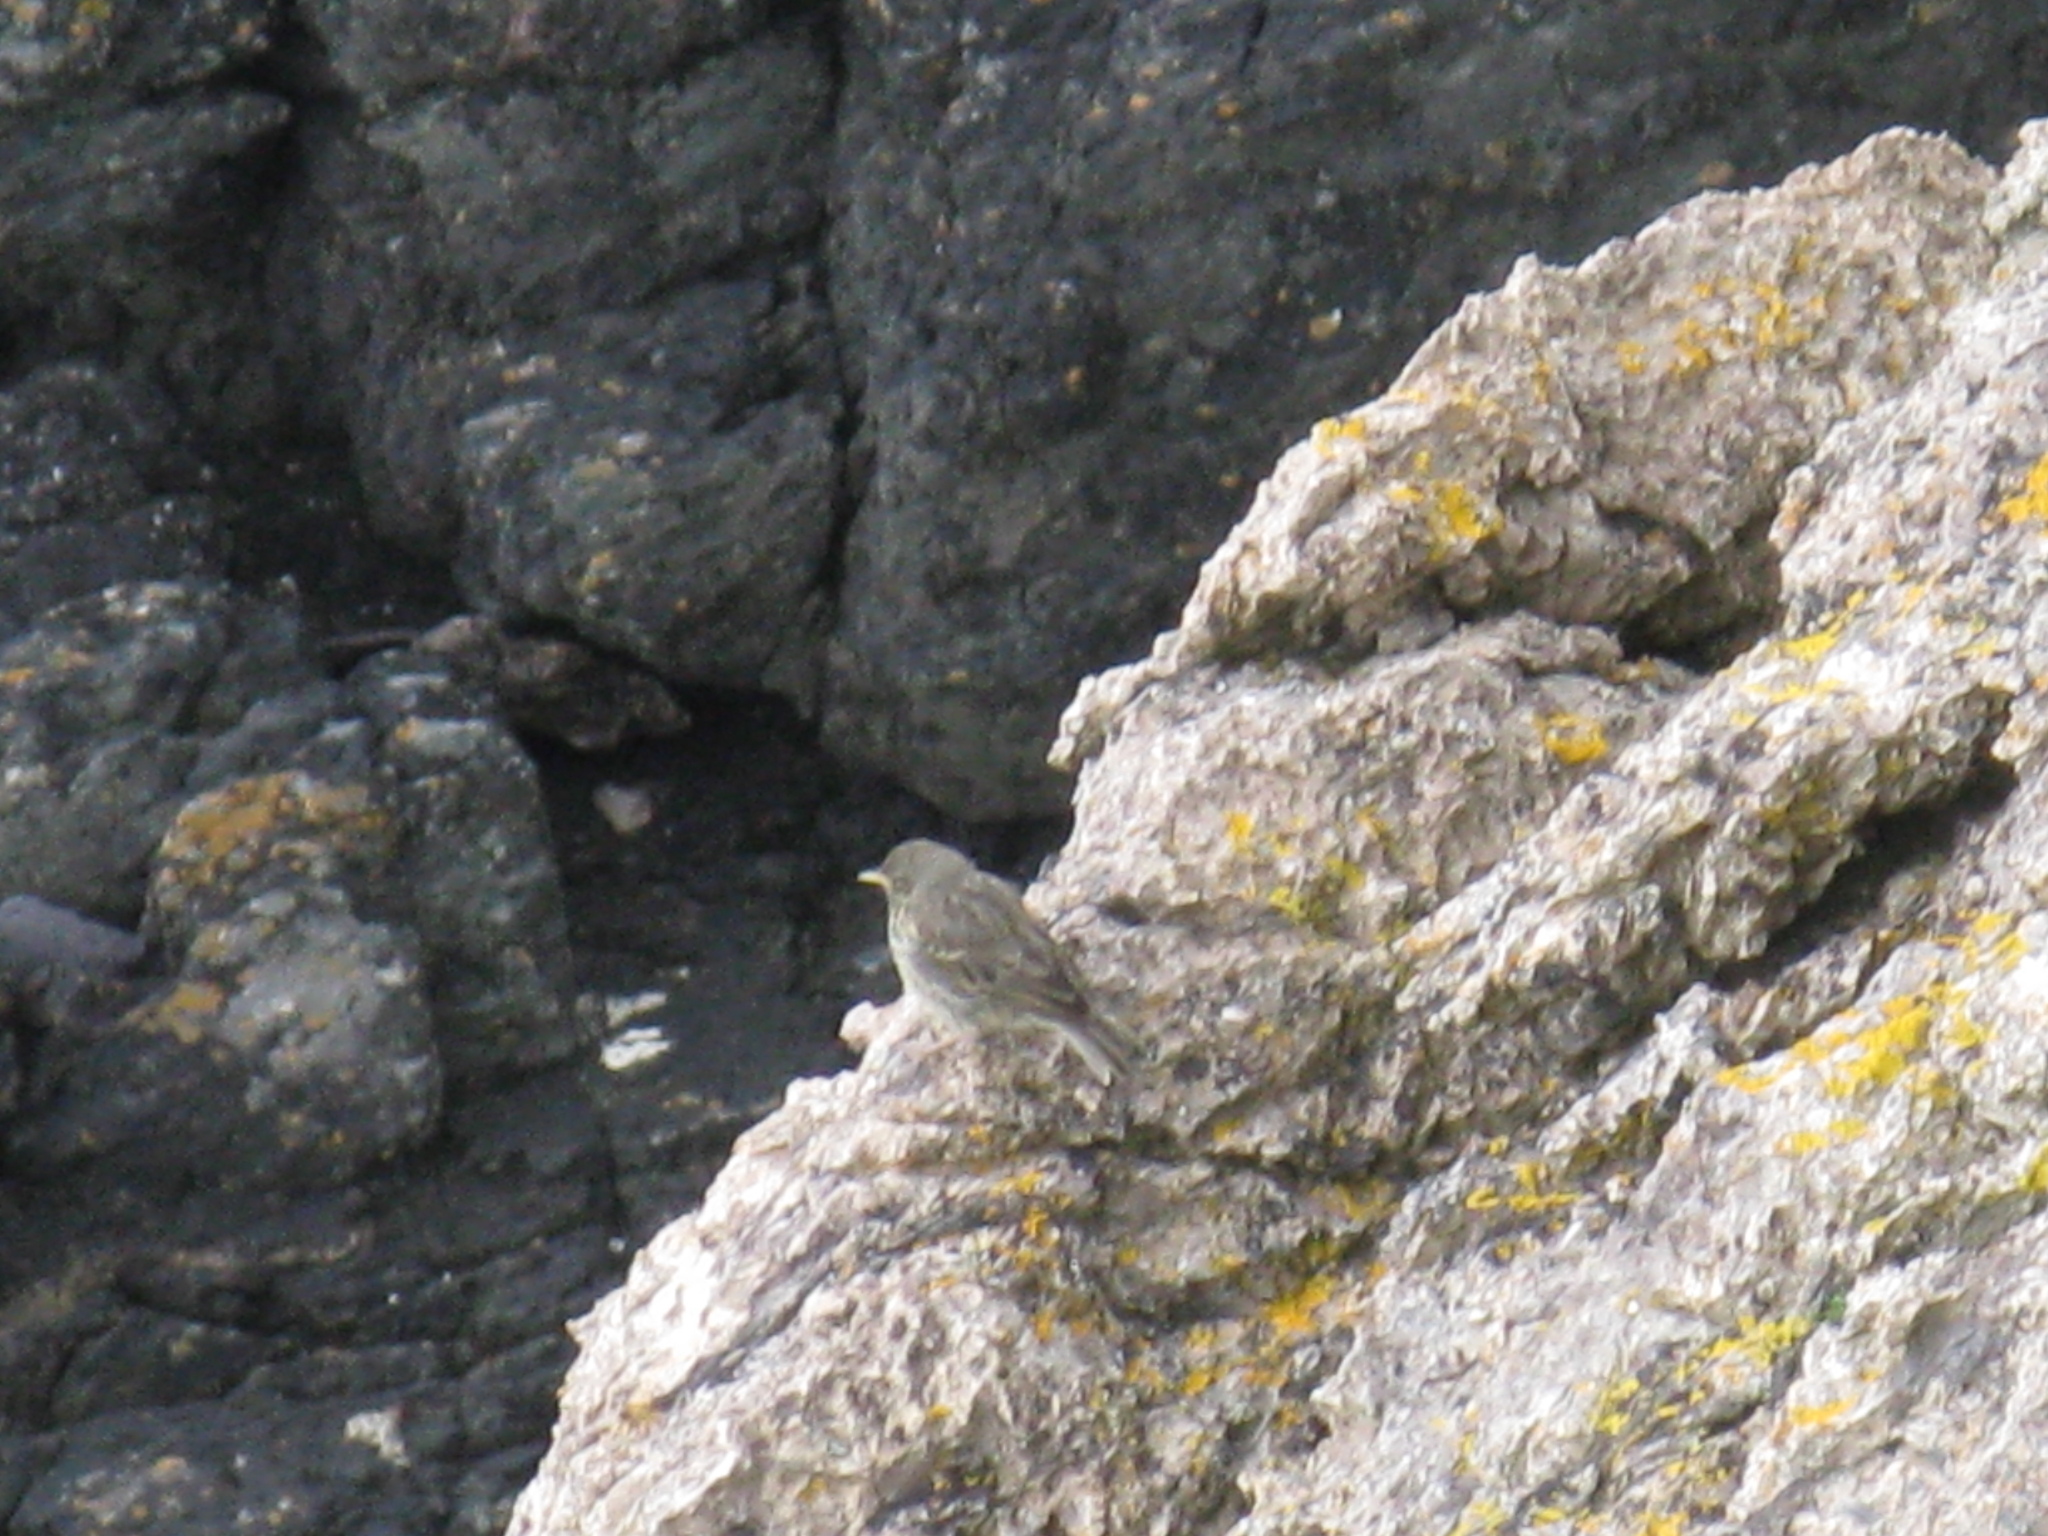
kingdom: Animalia
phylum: Chordata
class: Aves
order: Passeriformes
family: Motacillidae
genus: Anthus
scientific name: Anthus petrosus
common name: Eurasian rock pipit
